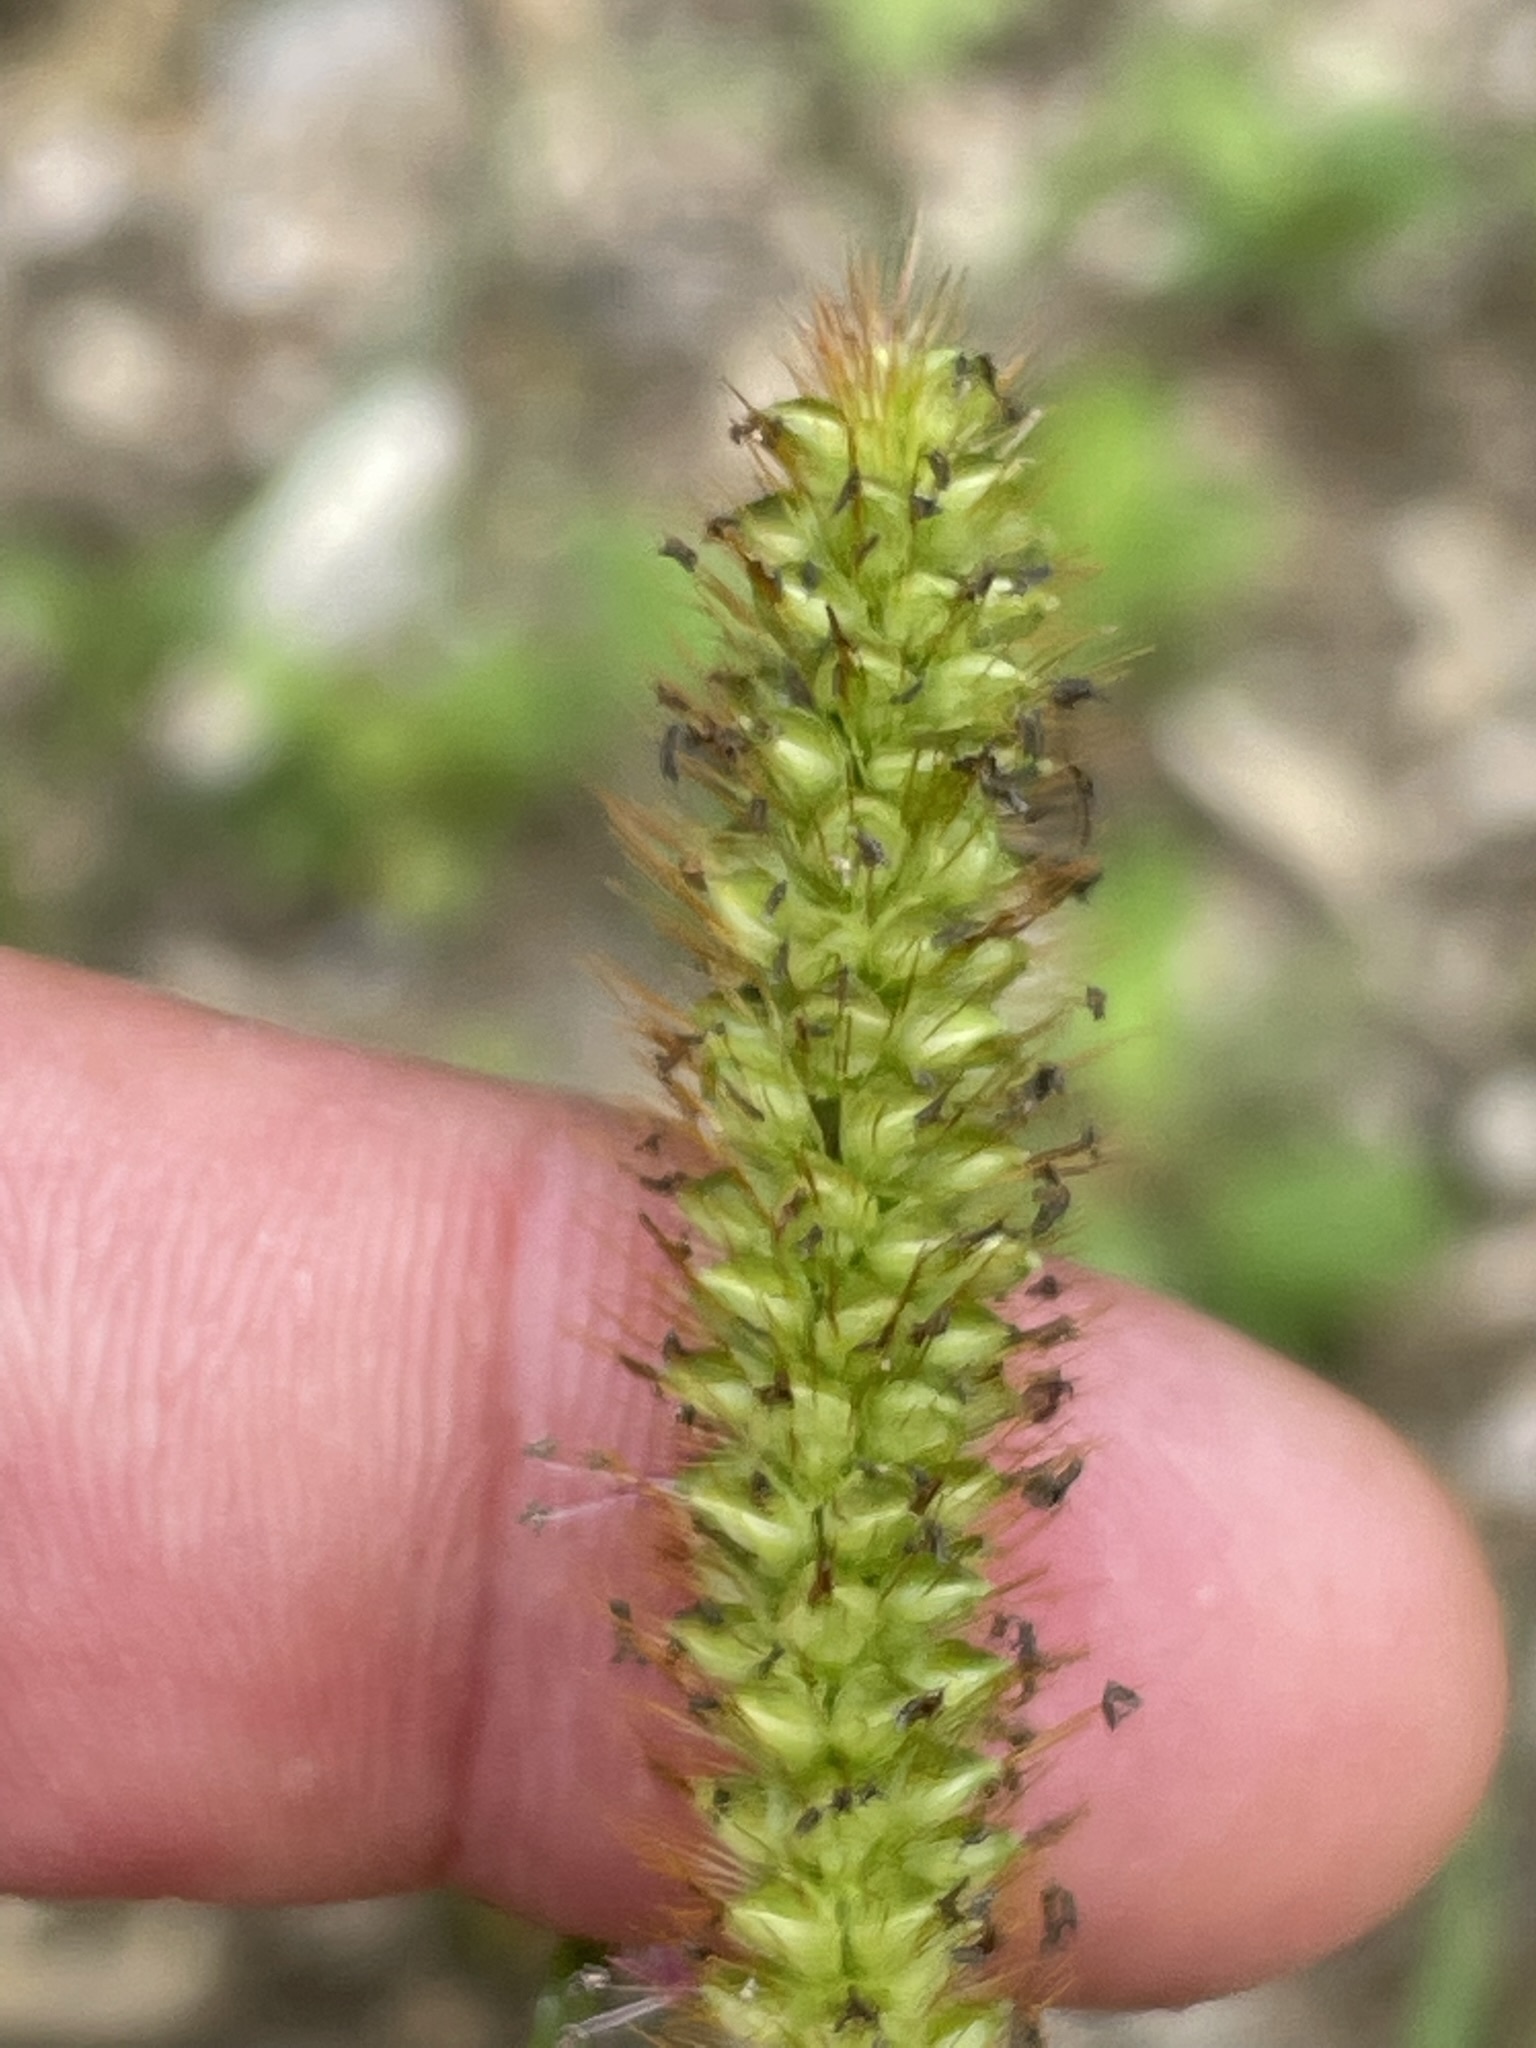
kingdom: Plantae
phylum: Tracheophyta
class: Liliopsida
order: Poales
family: Poaceae
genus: Setaria
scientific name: Setaria pumila
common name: Yellow bristle-grass
